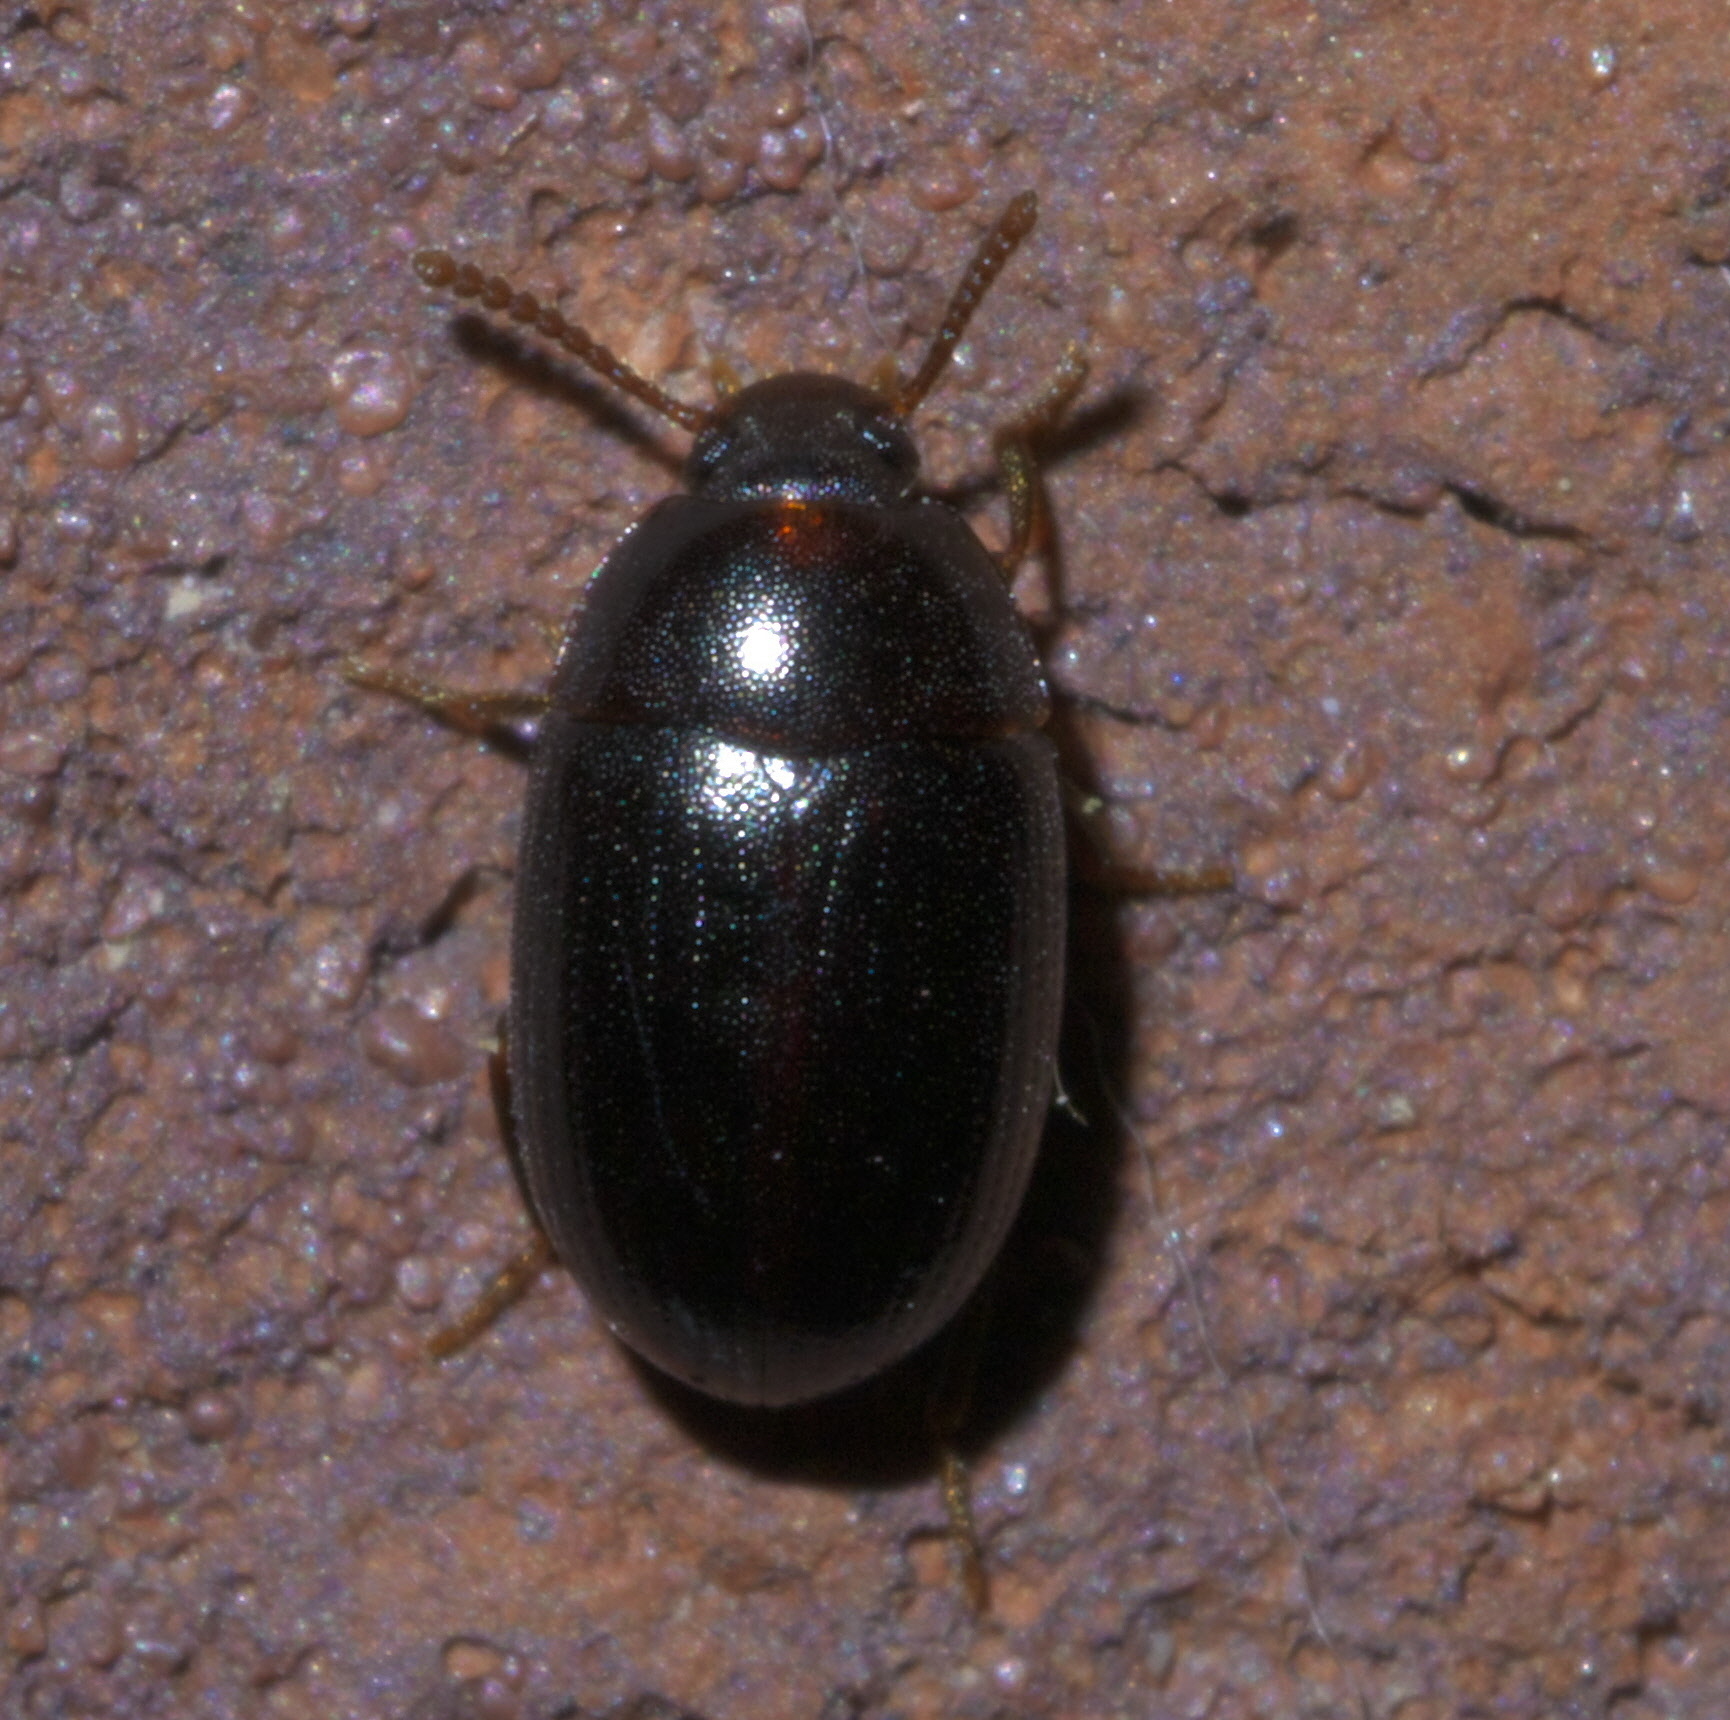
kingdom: Animalia
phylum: Arthropoda
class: Insecta
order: Coleoptera
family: Tenebrionidae
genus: Platydema
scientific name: Platydema micans
